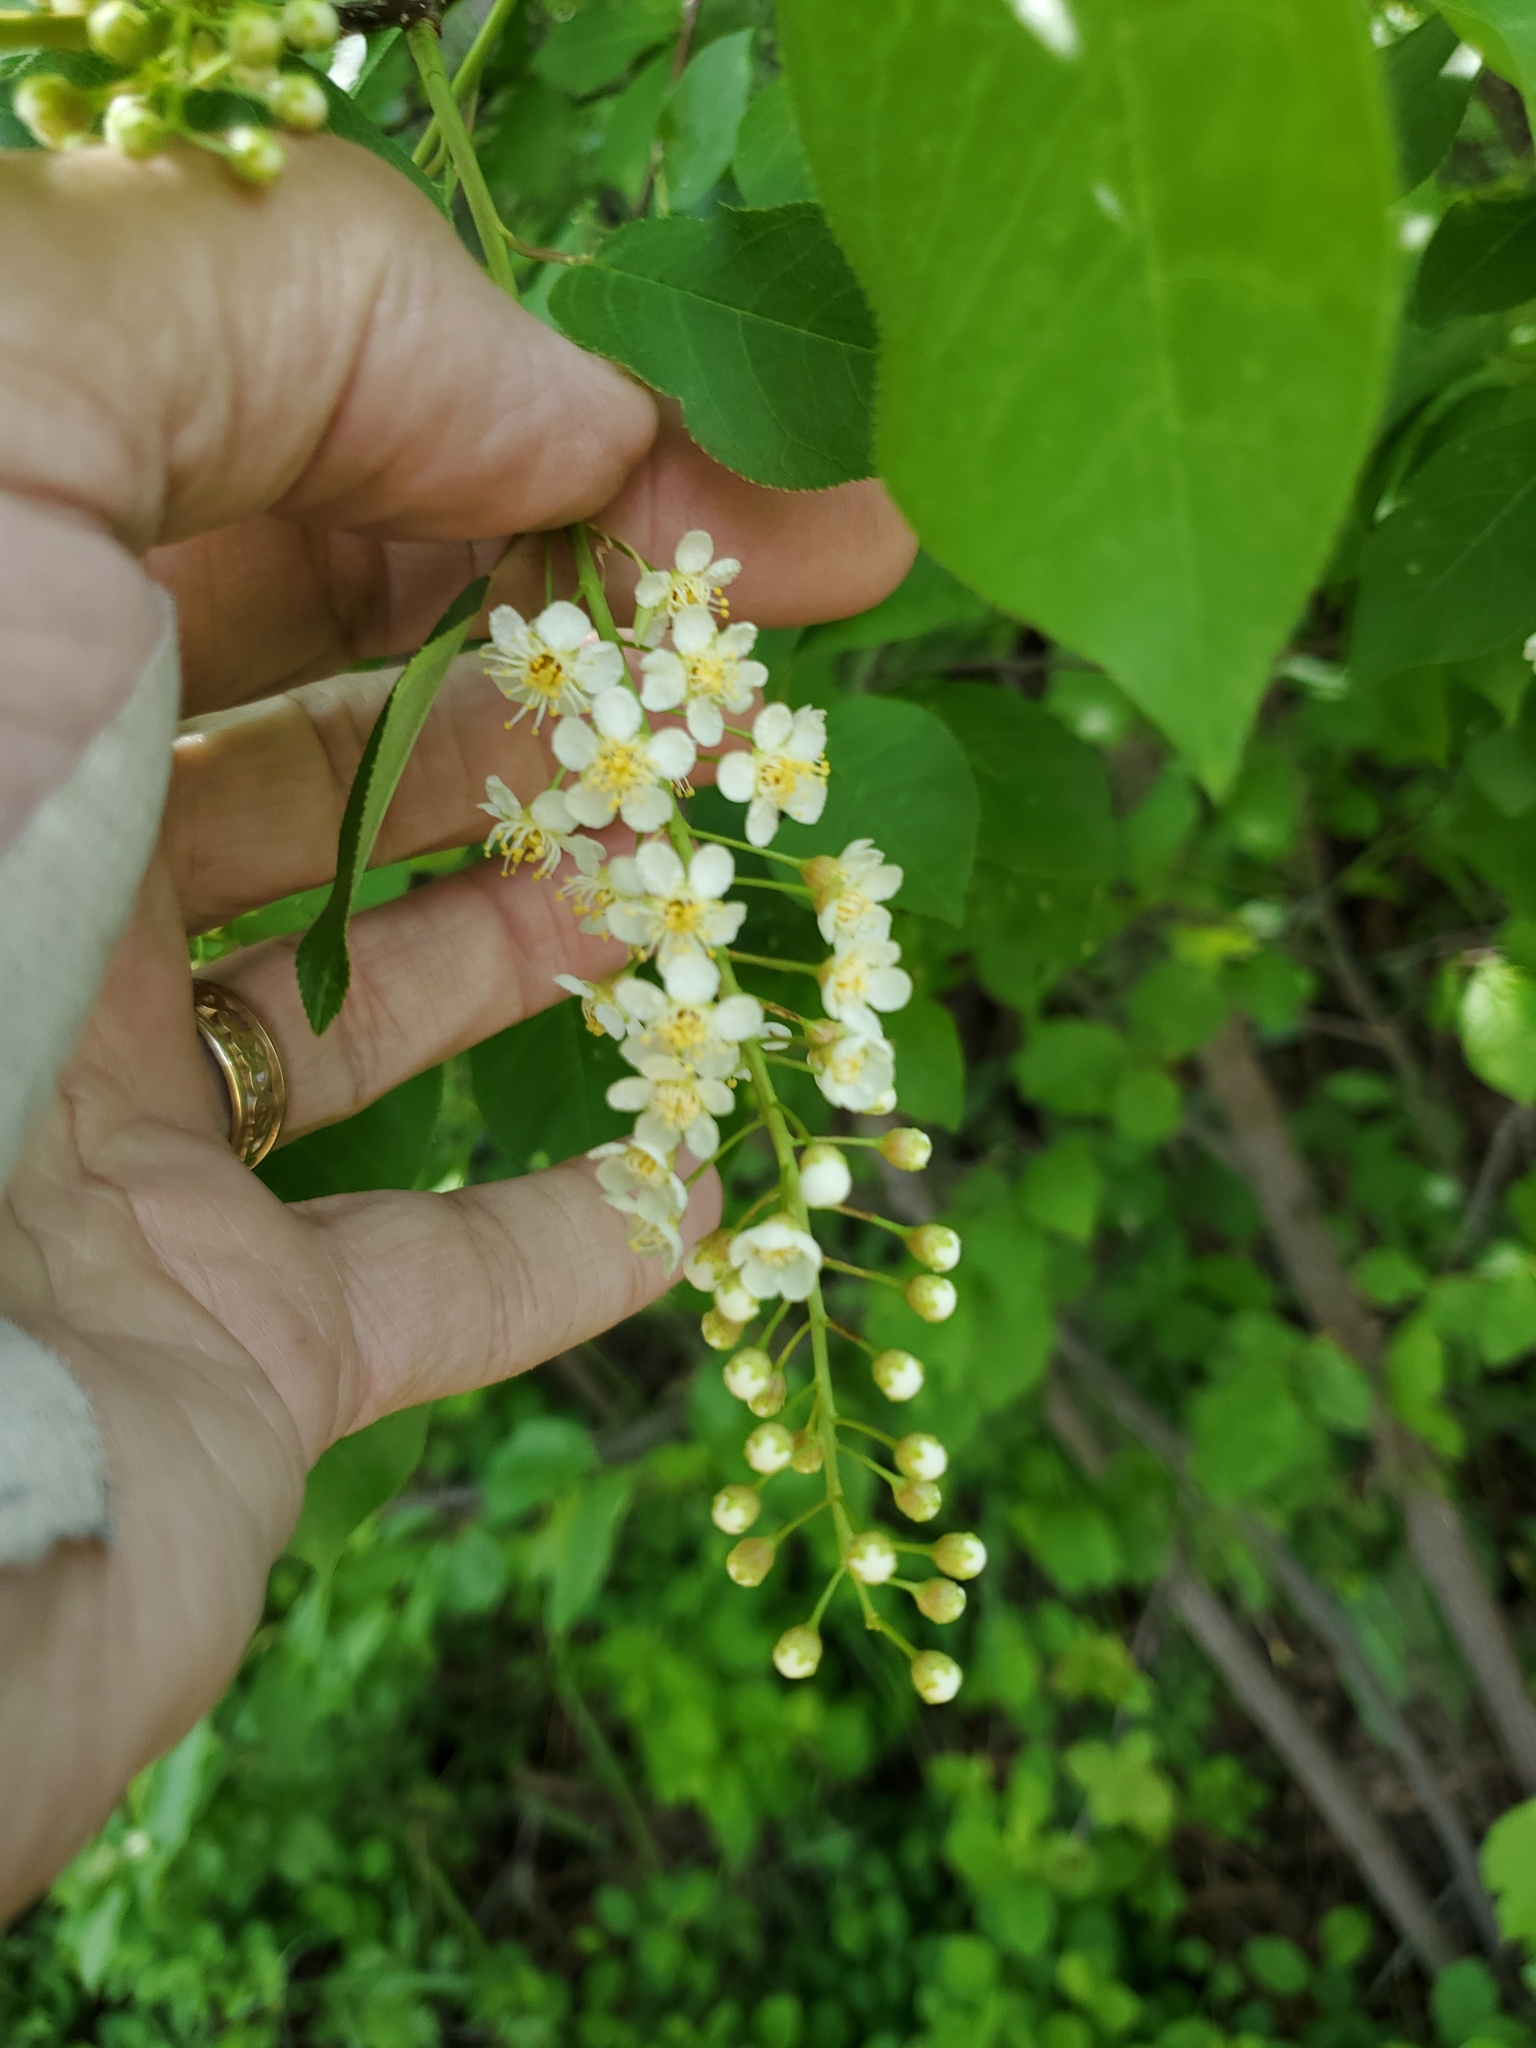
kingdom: Plantae
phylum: Tracheophyta
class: Magnoliopsida
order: Rosales
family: Rosaceae
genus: Prunus
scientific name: Prunus virginiana
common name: Chokecherry
